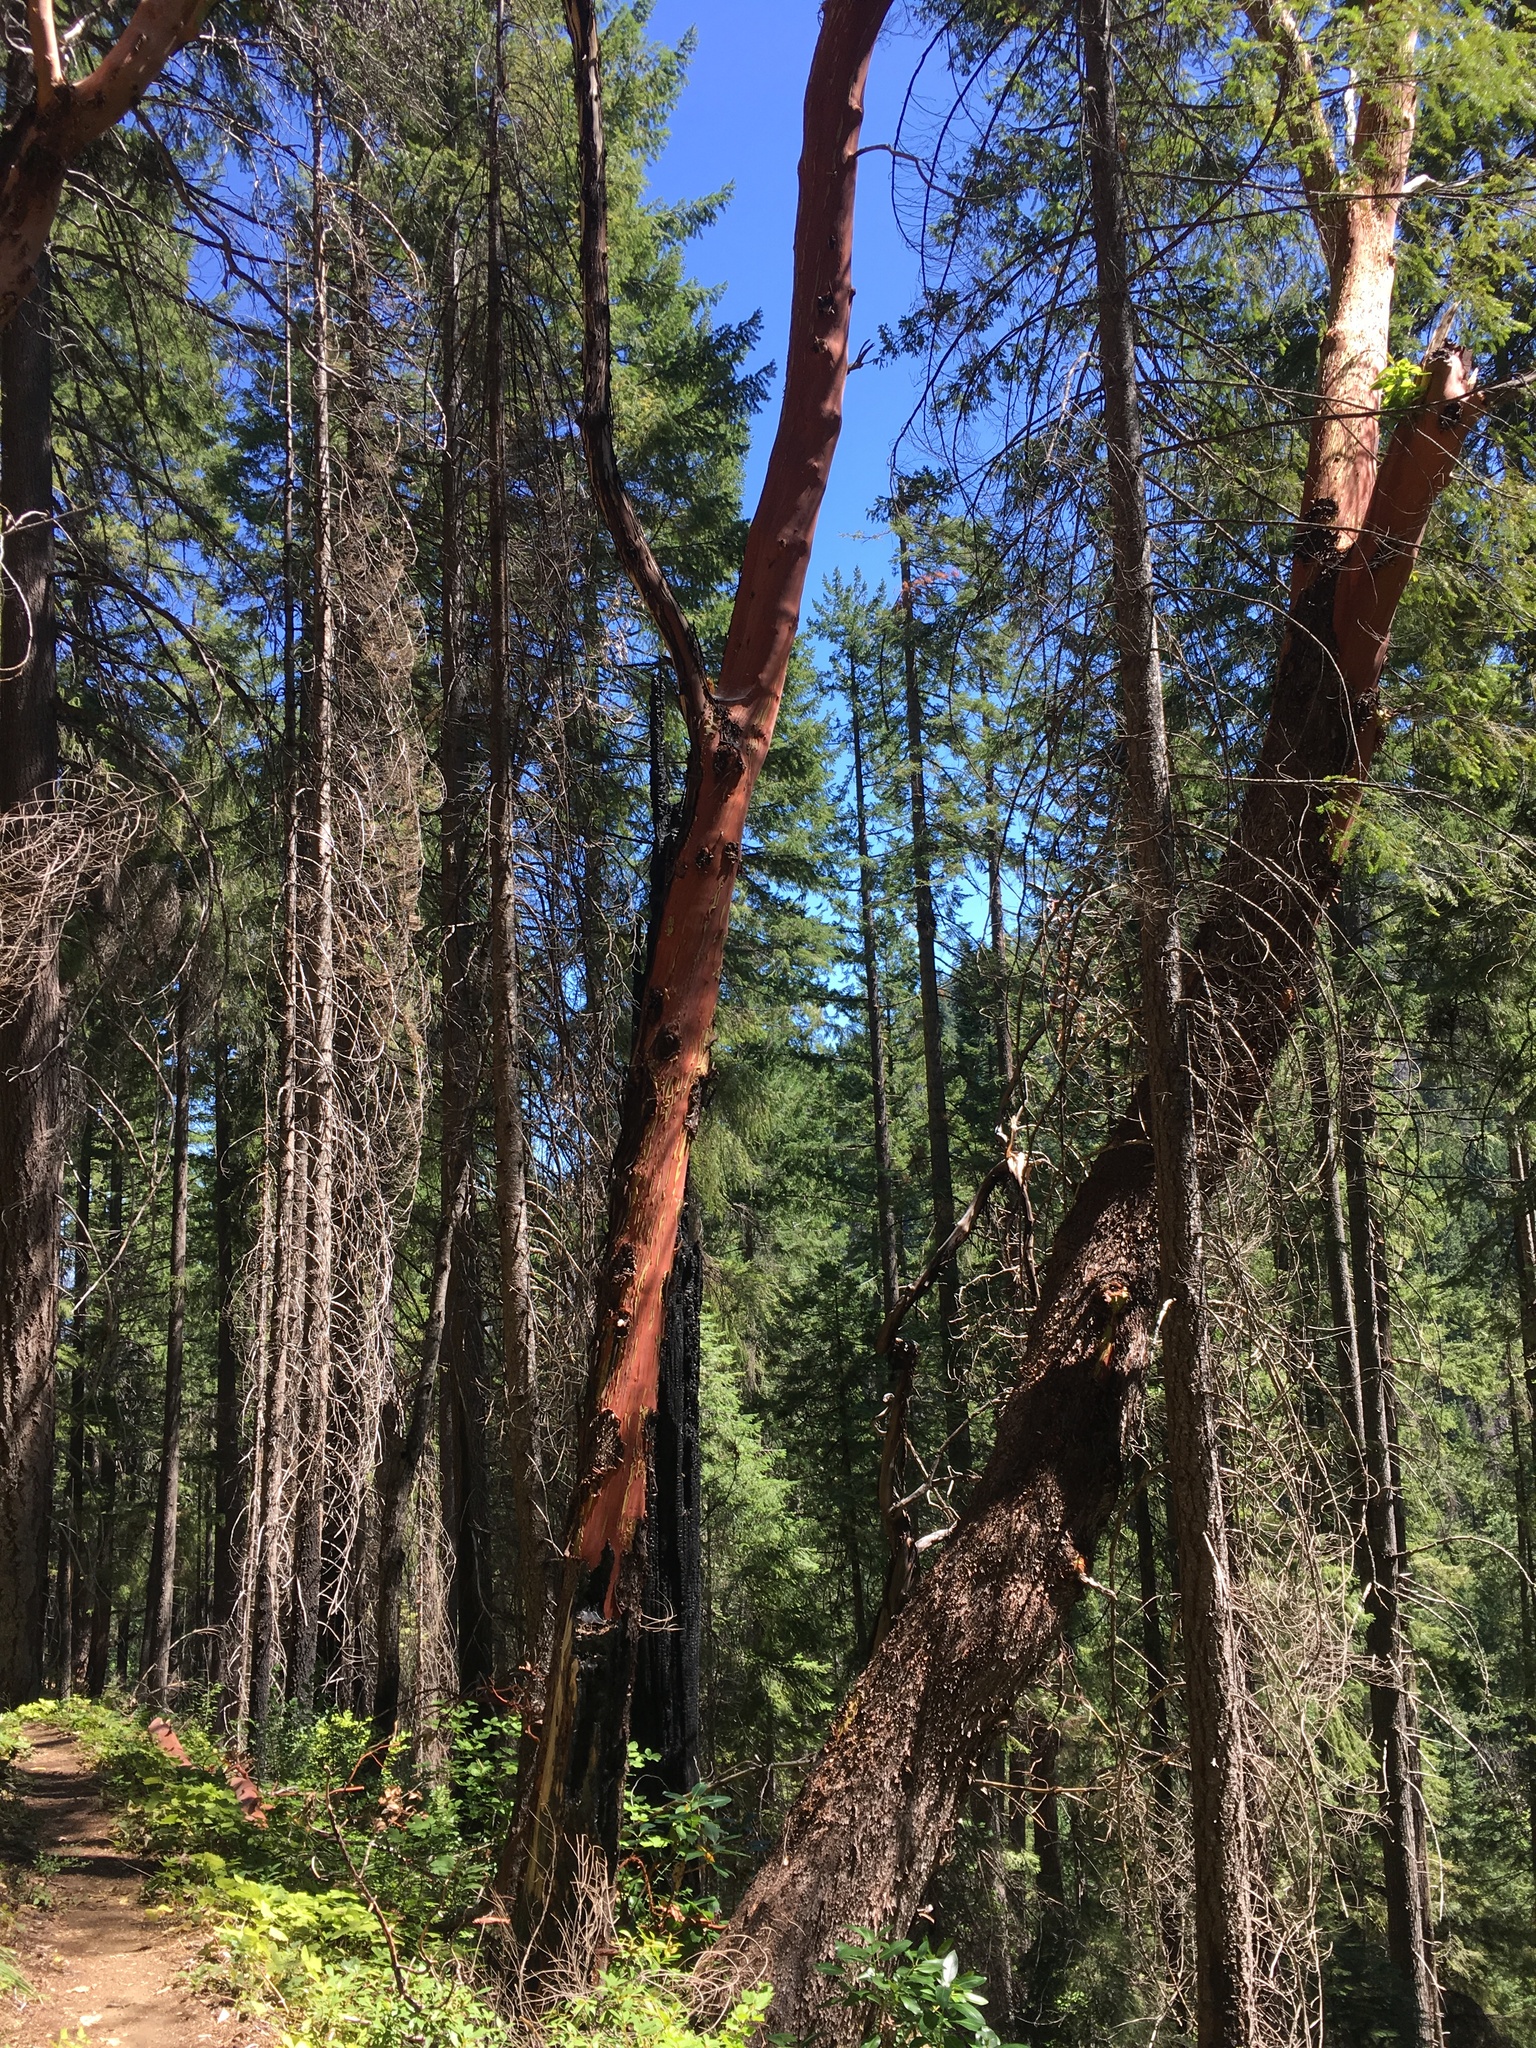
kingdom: Plantae
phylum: Tracheophyta
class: Magnoliopsida
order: Ericales
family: Ericaceae
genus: Arbutus
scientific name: Arbutus menziesii
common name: Pacific madrone
